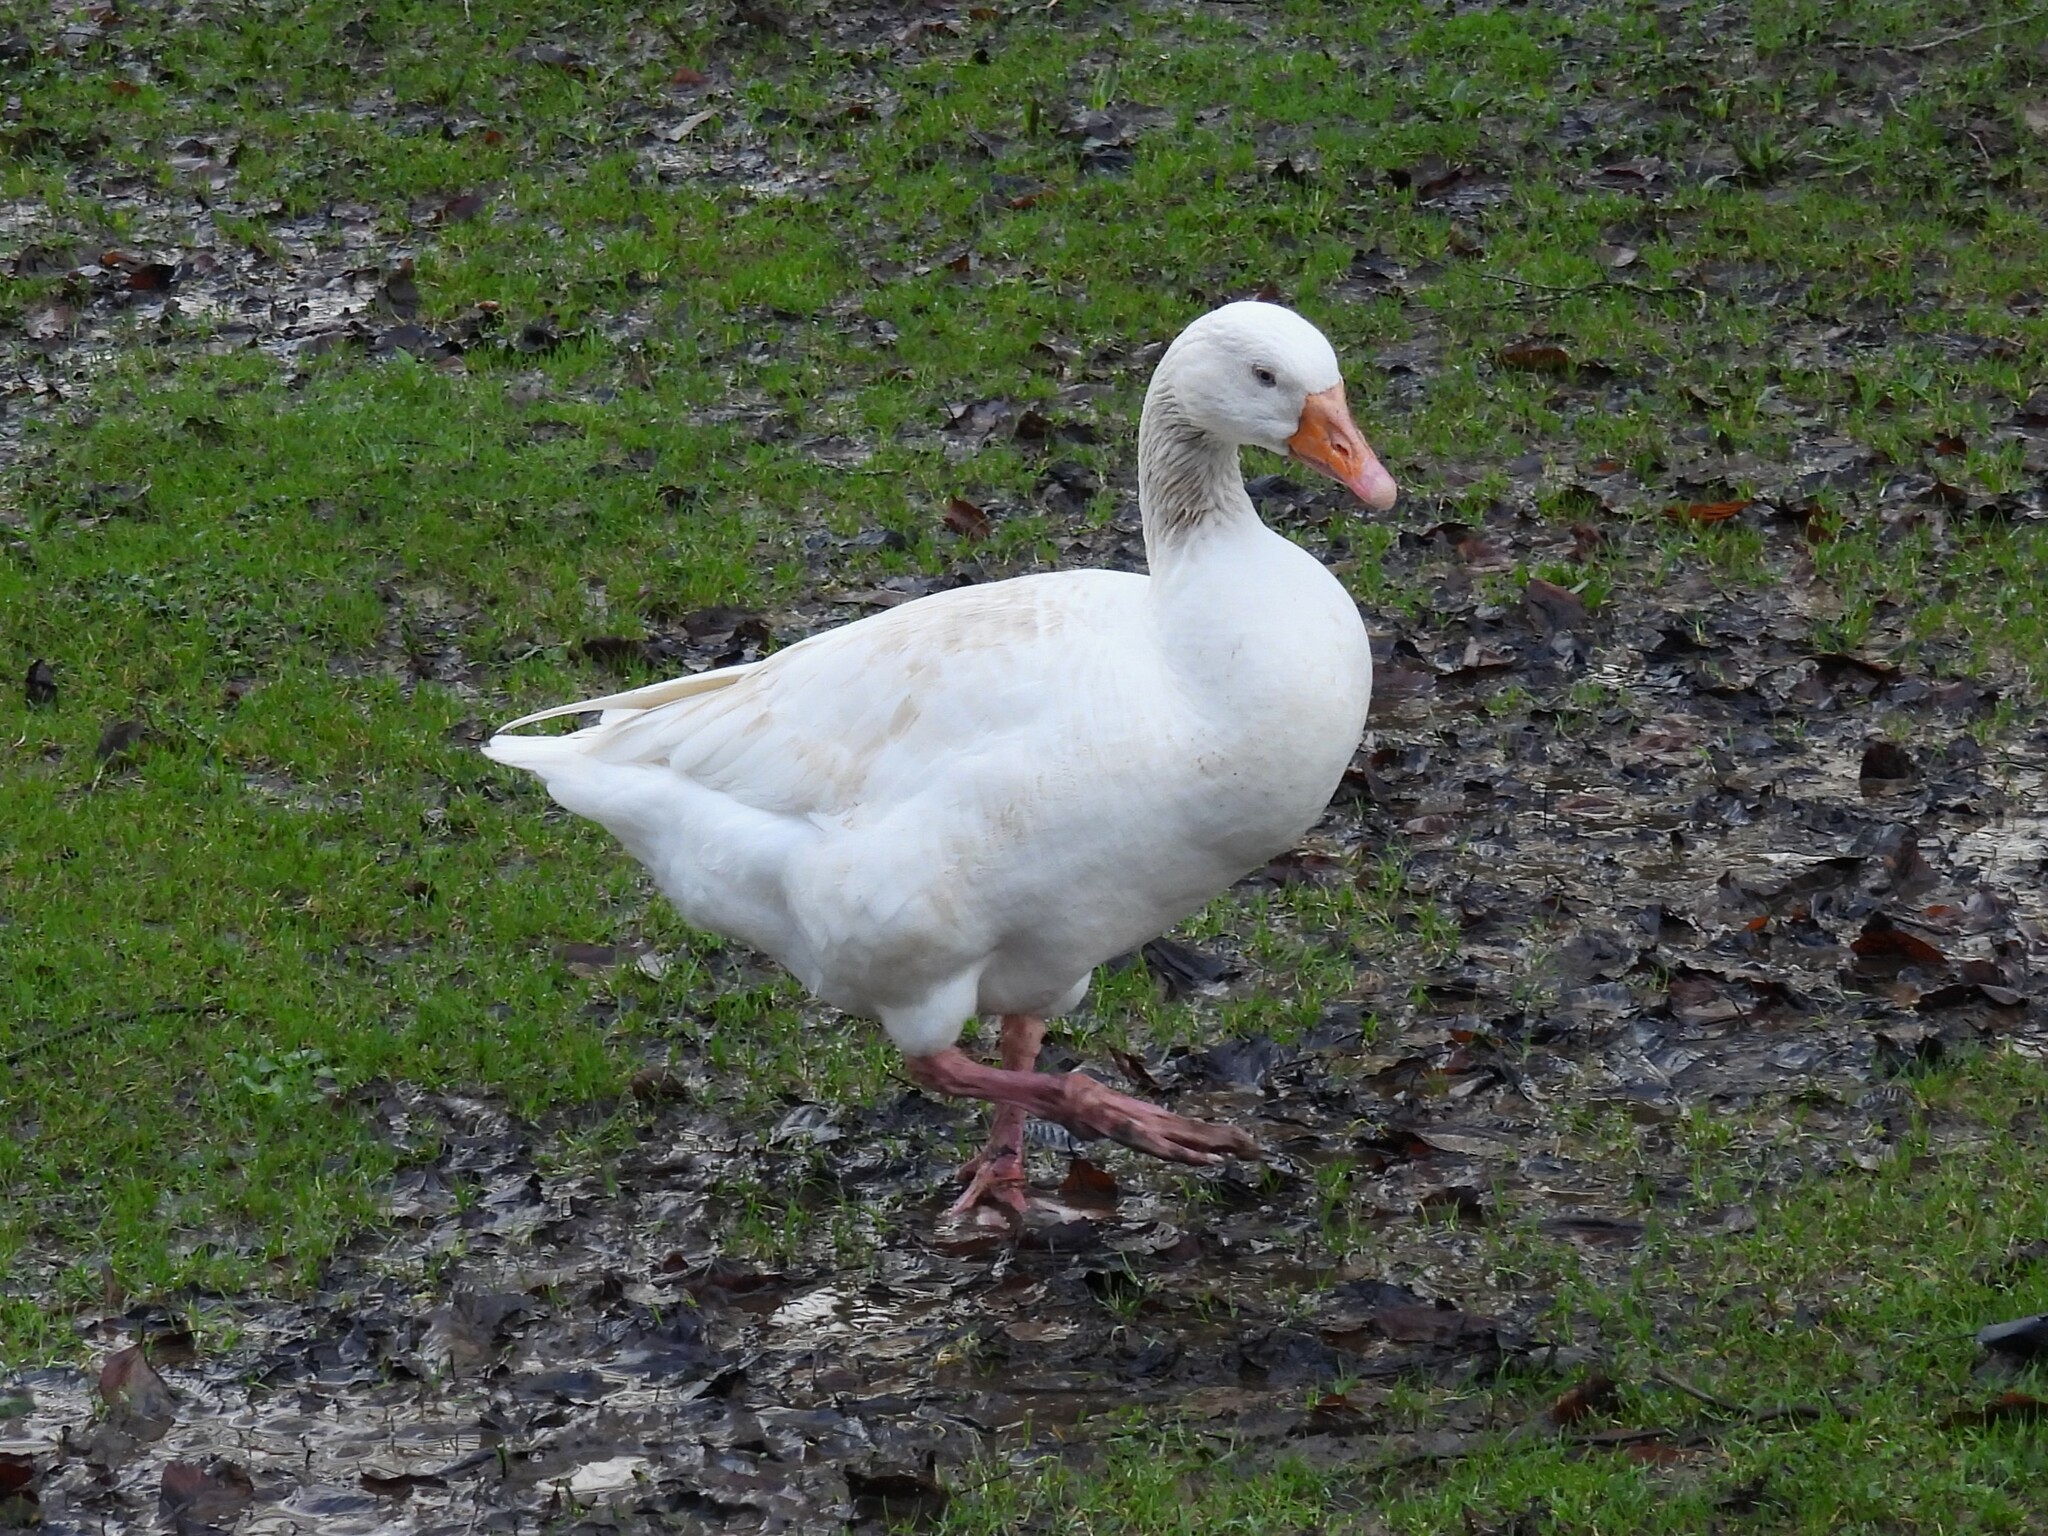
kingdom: Animalia
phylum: Chordata
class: Aves
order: Anseriformes
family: Anatidae
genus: Anser
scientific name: Anser anser
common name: Greylag goose
